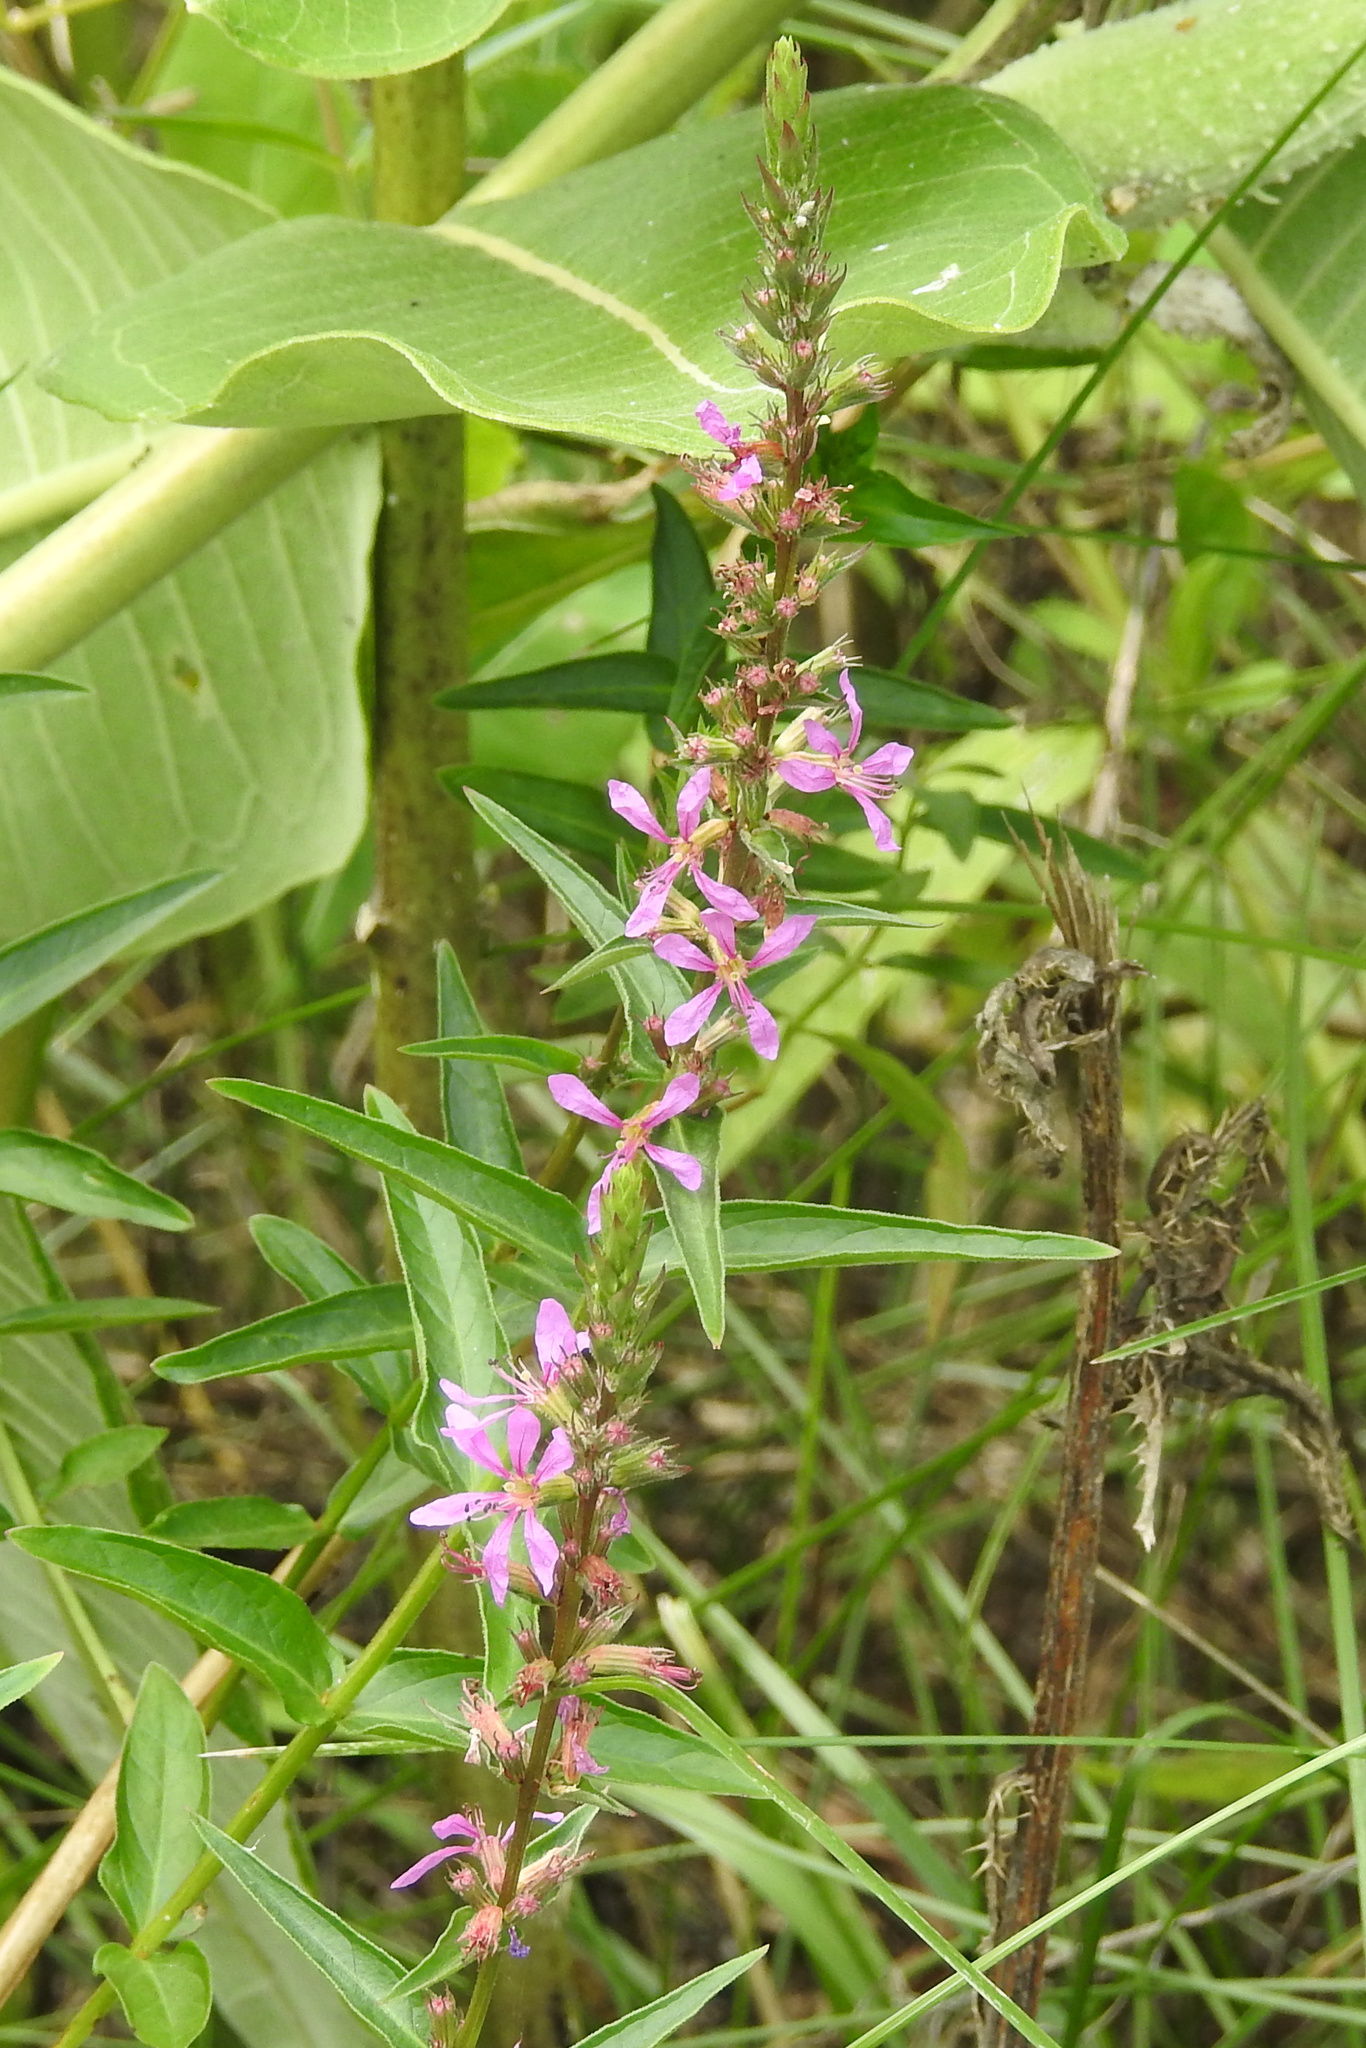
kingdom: Plantae
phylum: Tracheophyta
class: Magnoliopsida
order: Myrtales
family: Lythraceae
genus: Lythrum
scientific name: Lythrum salicaria
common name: Purple loosestrife
